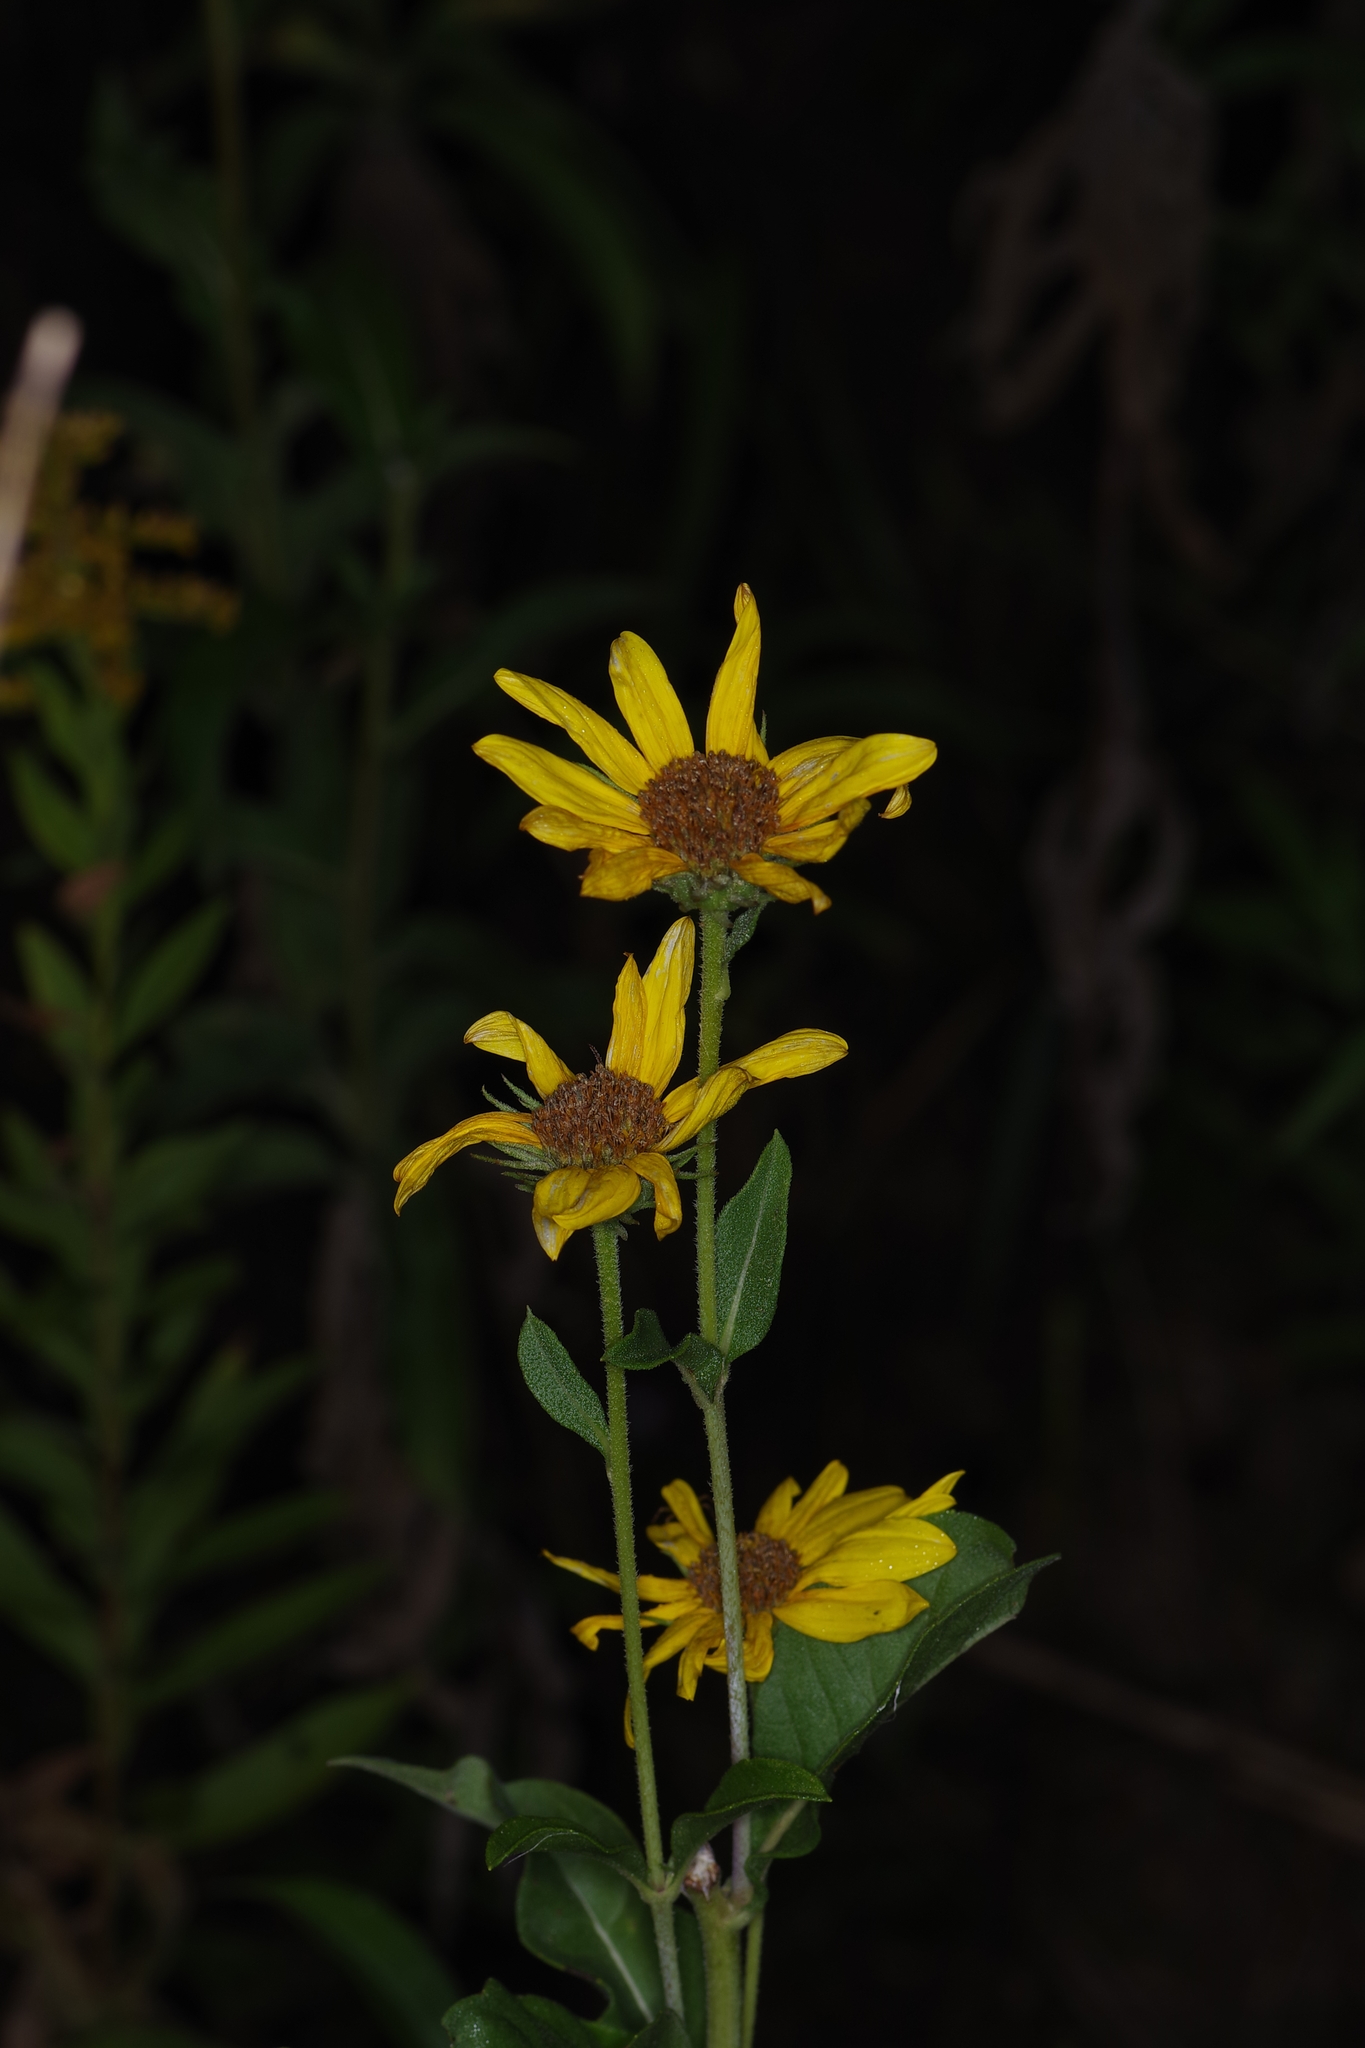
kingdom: Plantae
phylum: Tracheophyta
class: Magnoliopsida
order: Asterales
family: Asteraceae
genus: Helianthus
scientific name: Helianthus maximiliani
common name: Maximilian's sunflower
